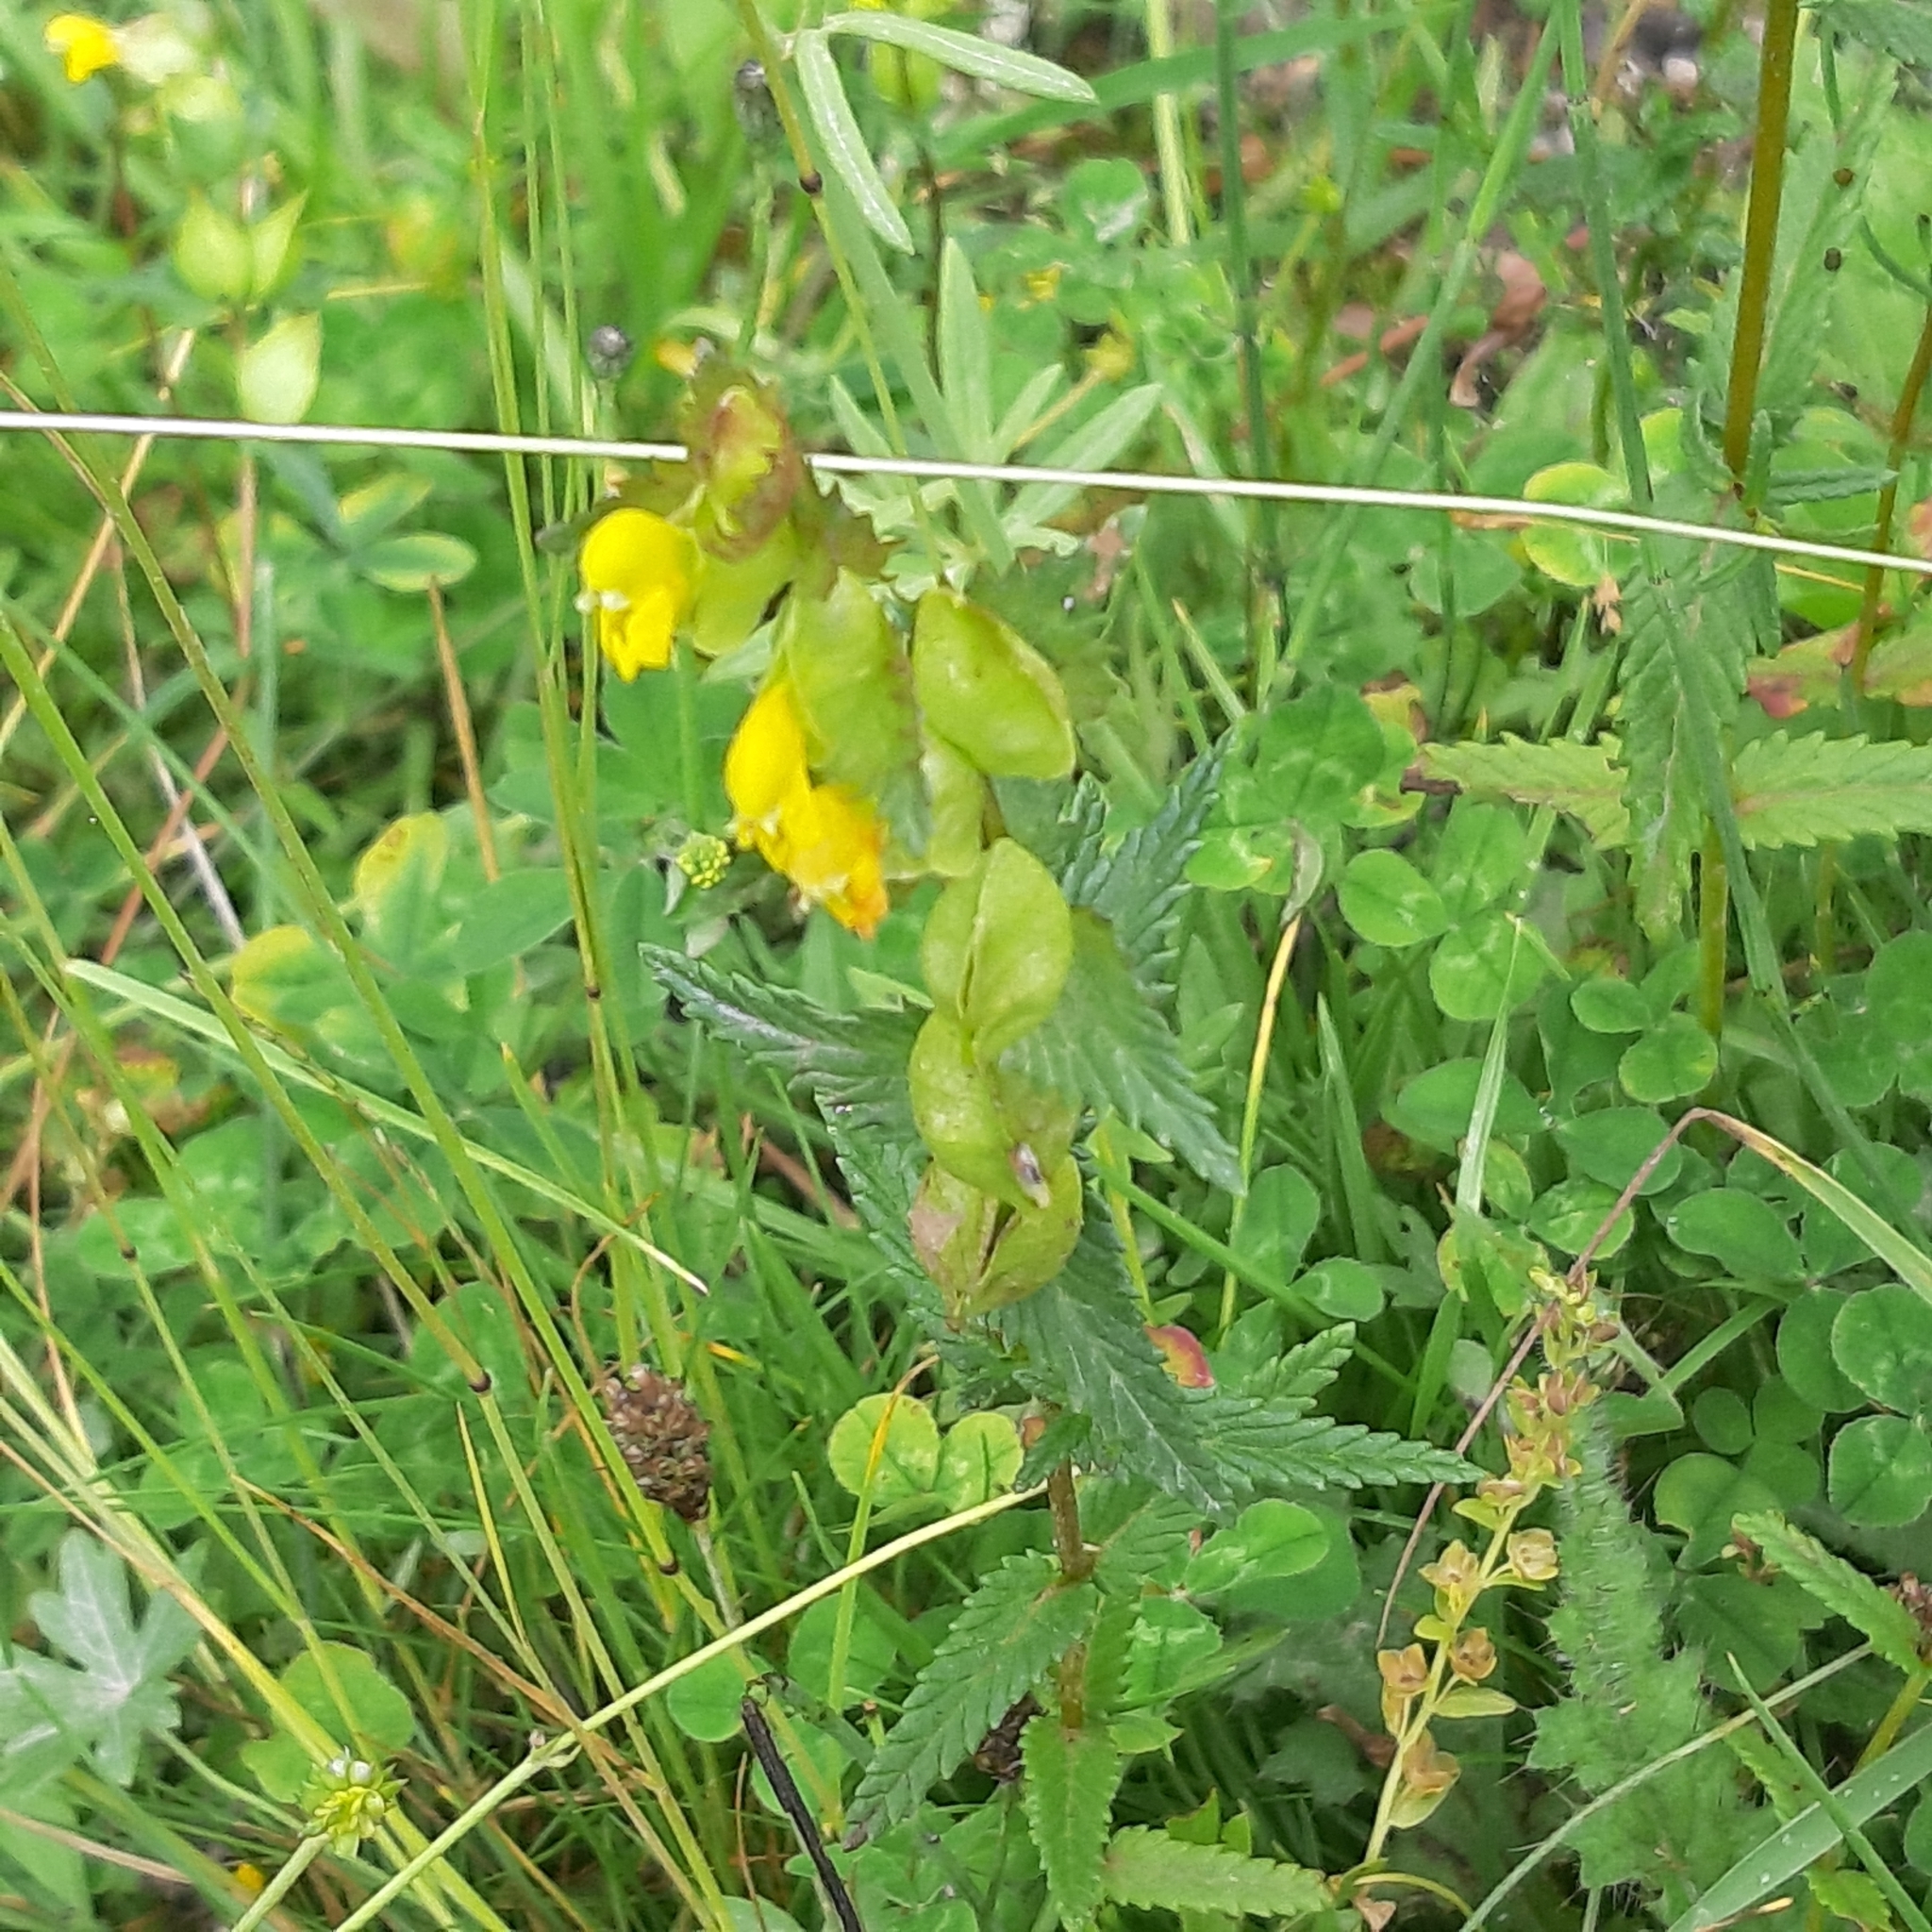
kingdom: Plantae
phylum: Tracheophyta
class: Magnoliopsida
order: Lamiales
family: Orobanchaceae
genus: Rhinanthus
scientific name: Rhinanthus minor
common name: Yellow-rattle
